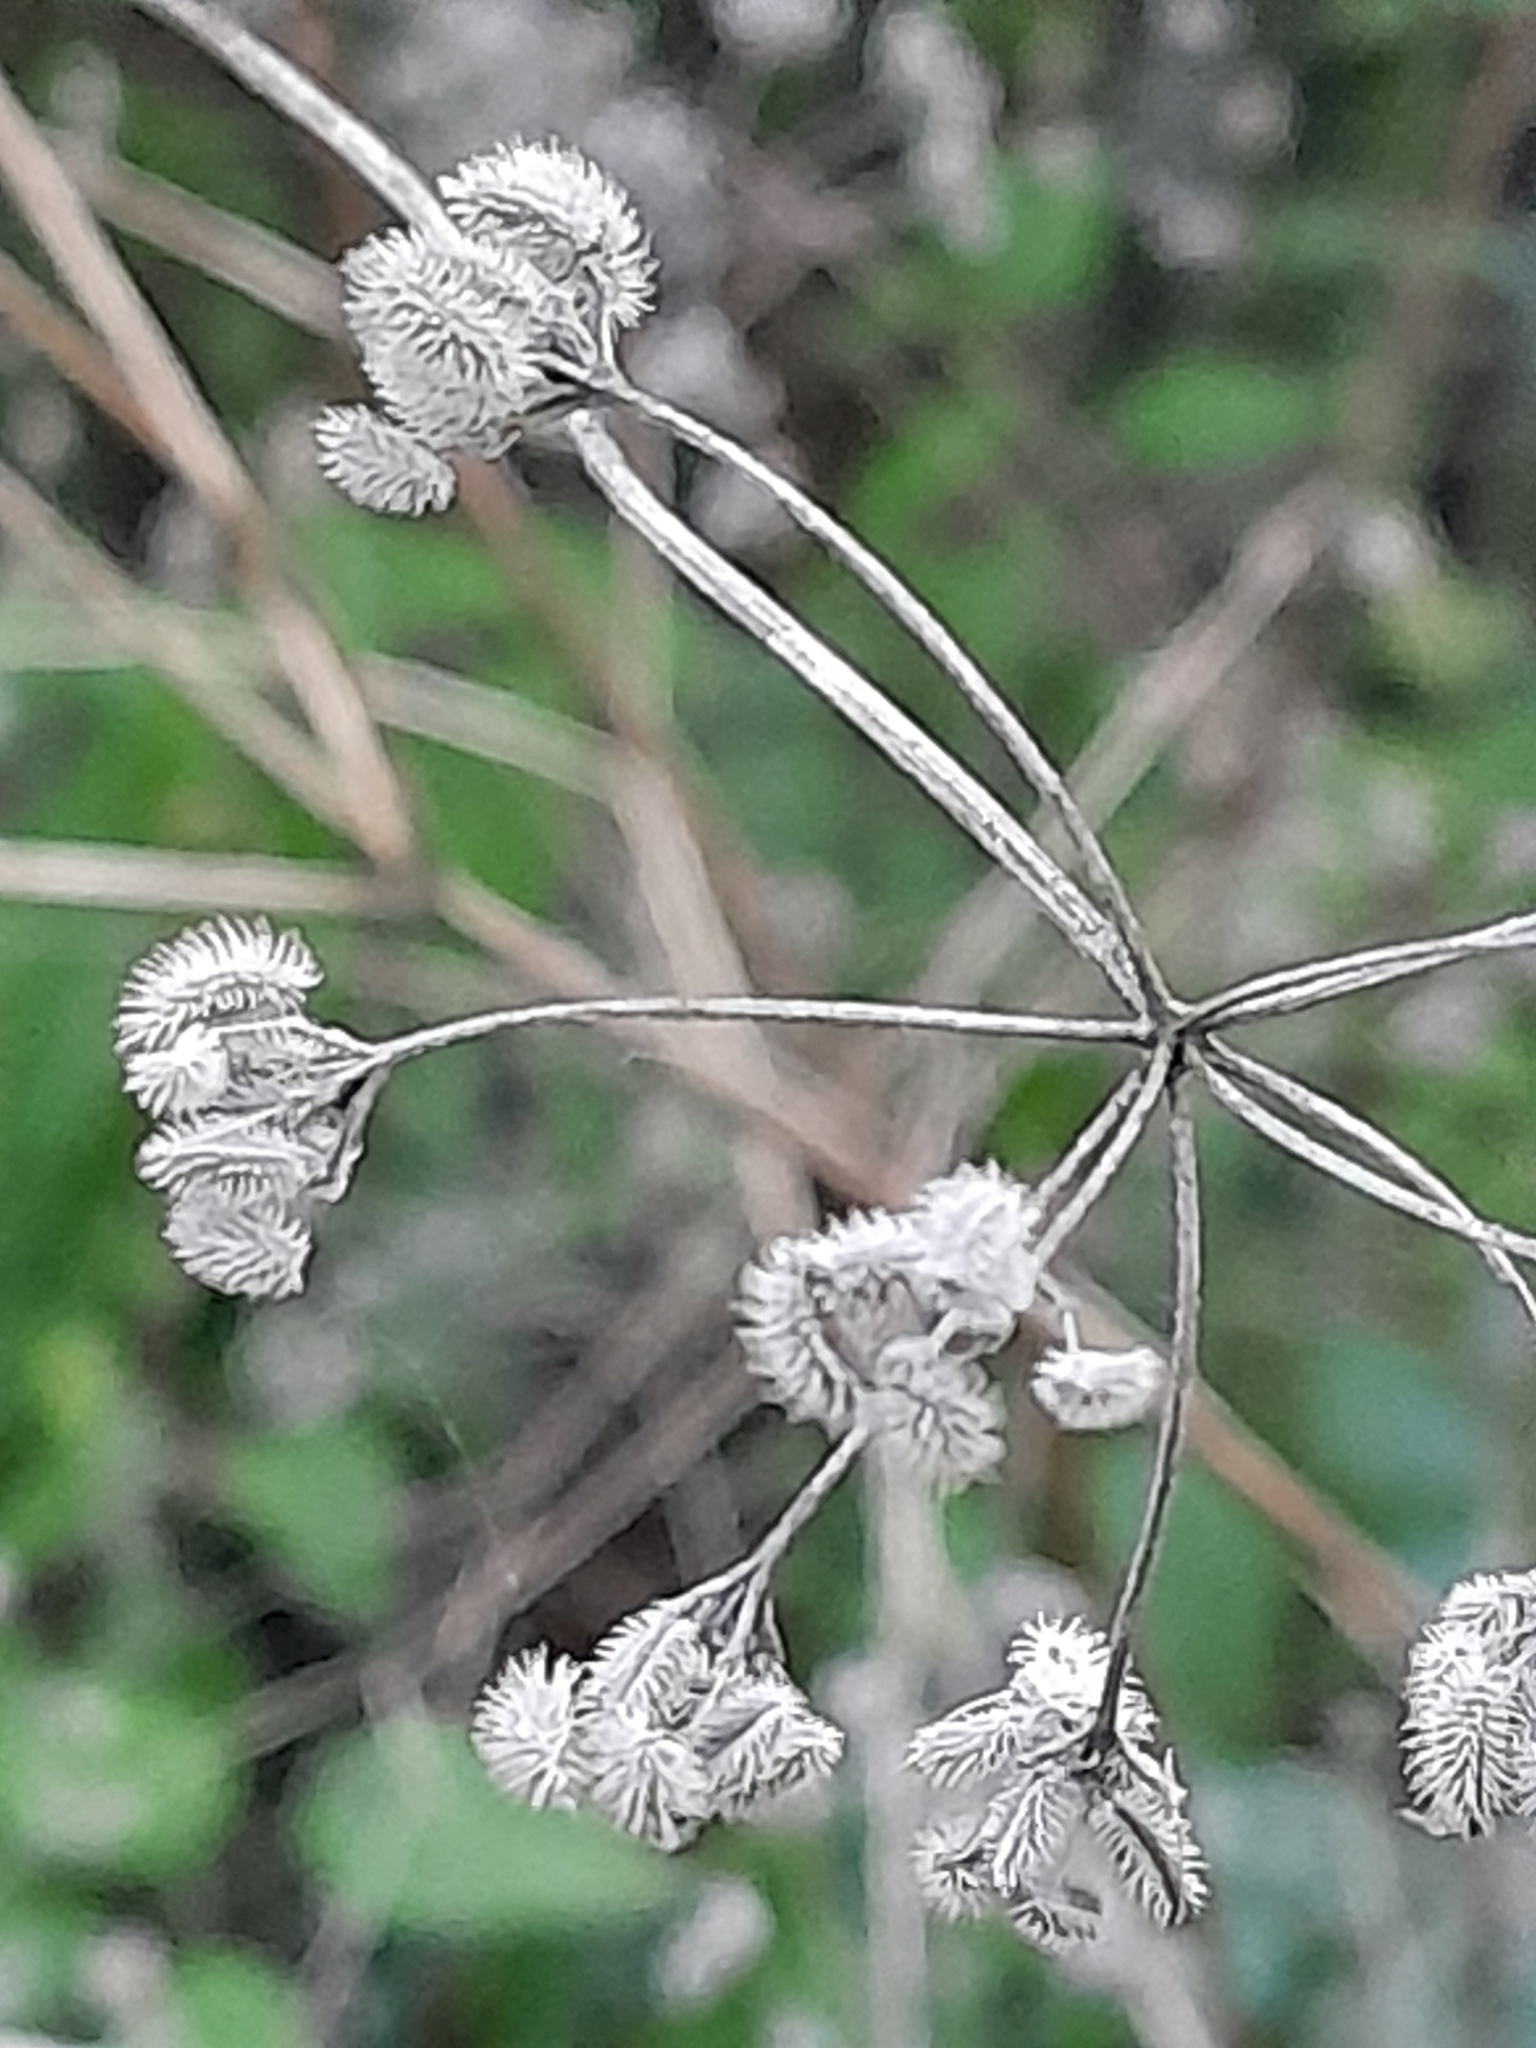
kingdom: Plantae
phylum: Tracheophyta
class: Magnoliopsida
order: Apiales
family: Apiaceae
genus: Torilis
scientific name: Torilis arvensis
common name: Spreading hedge-parsley
